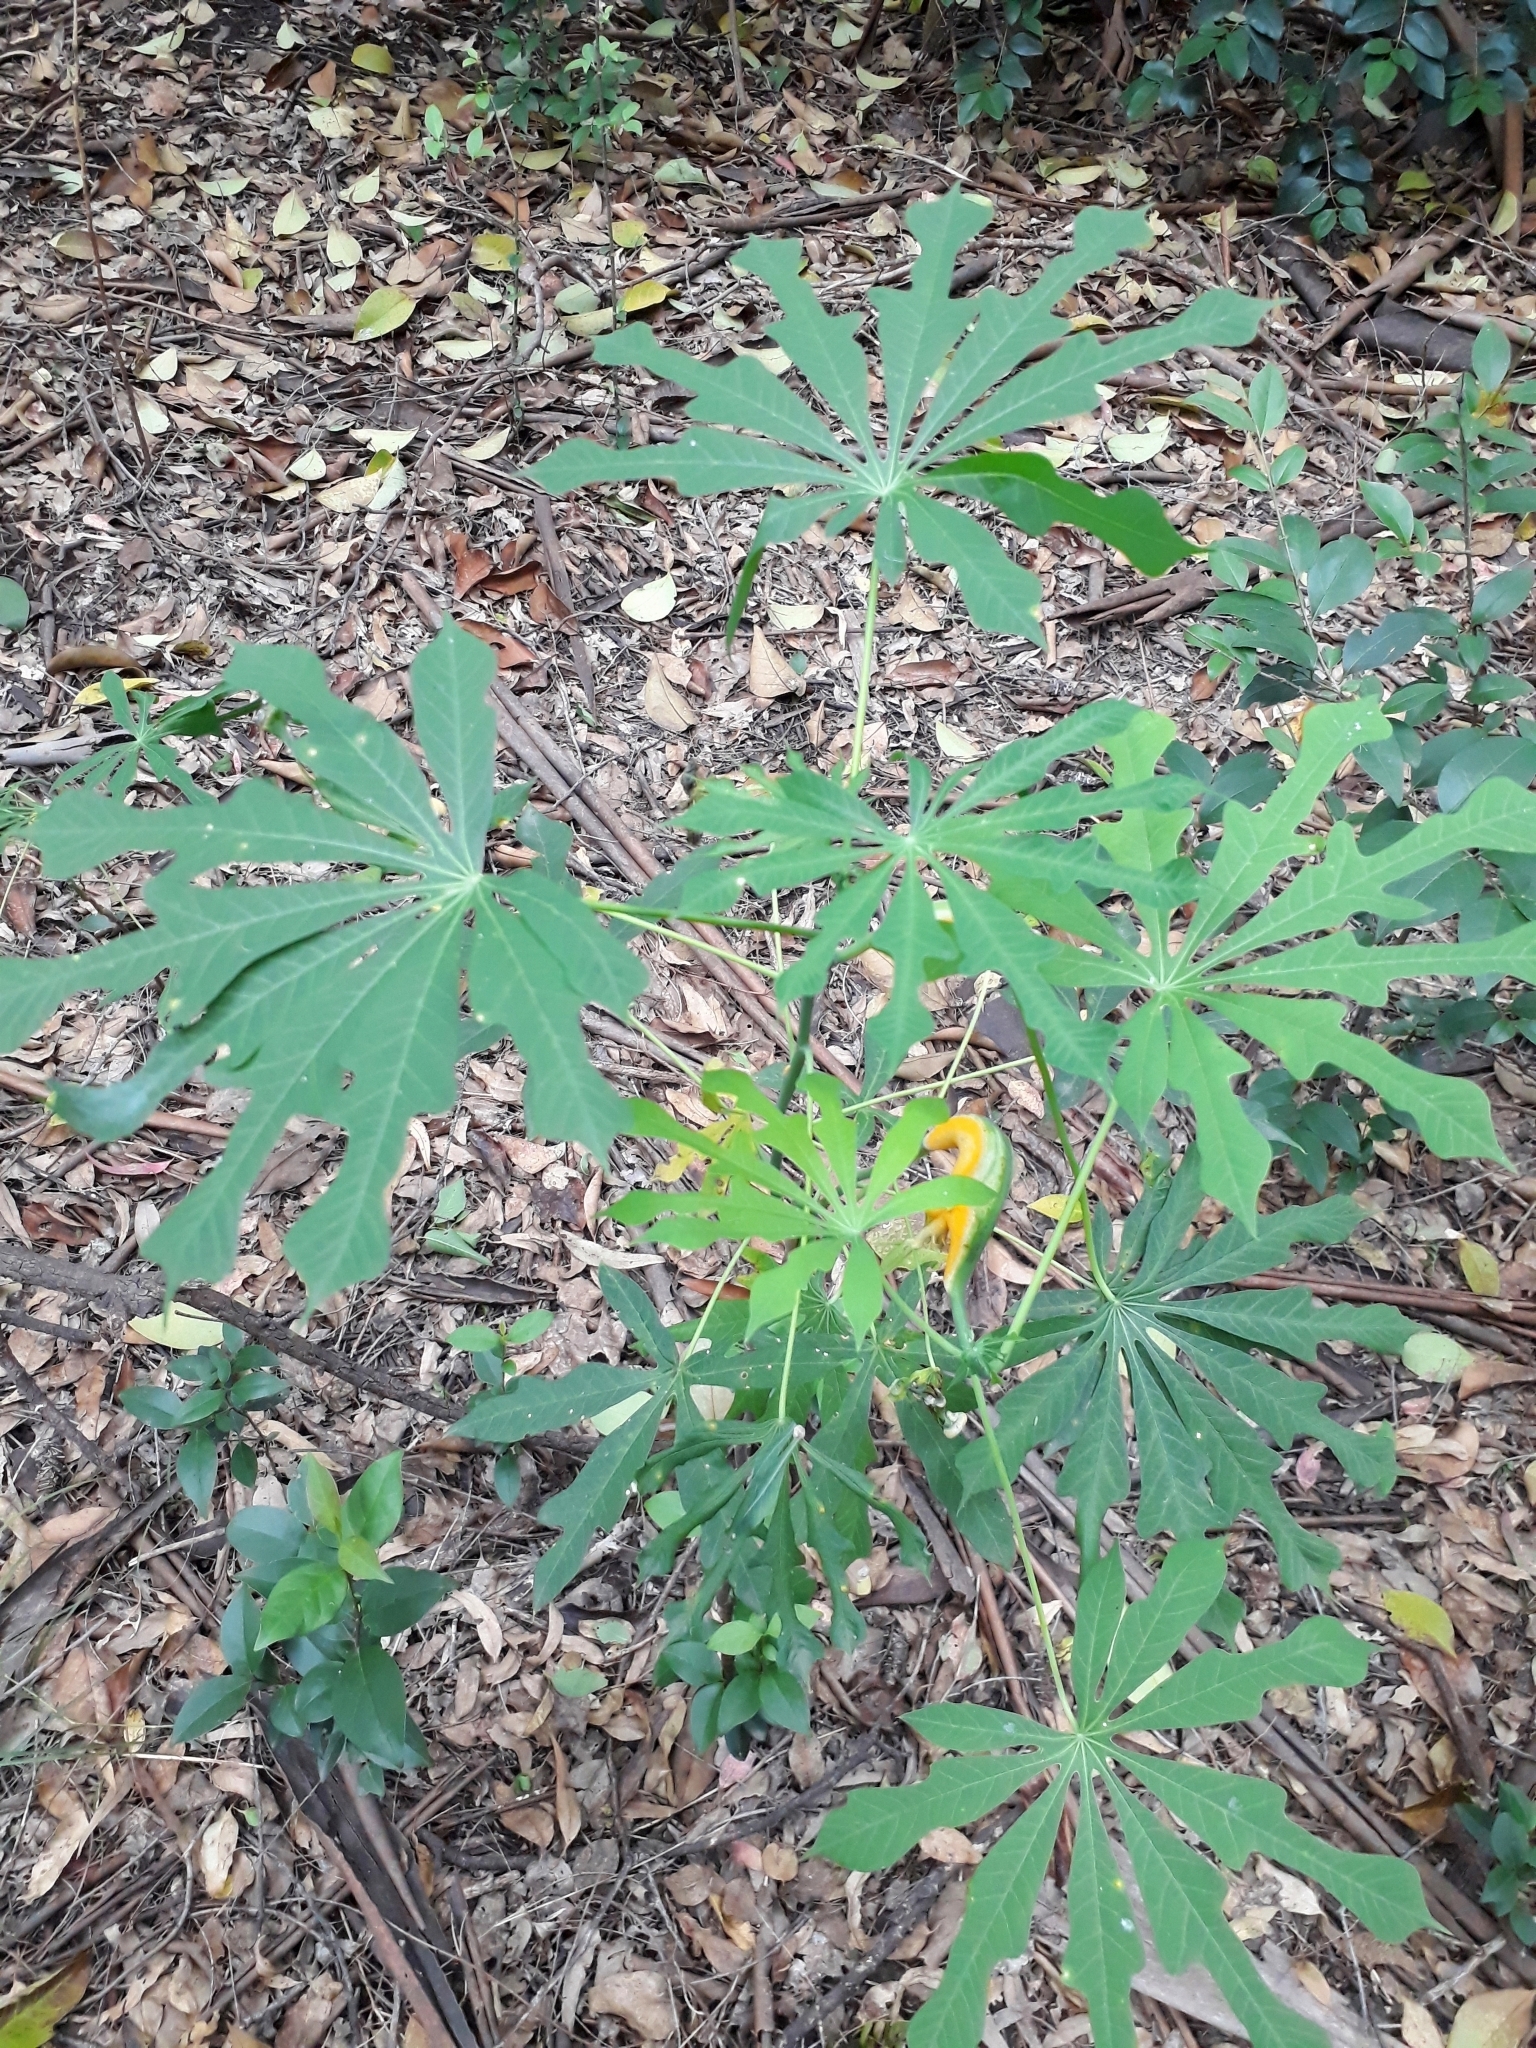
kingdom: Plantae
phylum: Tracheophyta
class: Magnoliopsida
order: Malpighiales
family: Euphorbiaceae
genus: Manihot
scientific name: Manihot grahamii
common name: Graham's manihot
